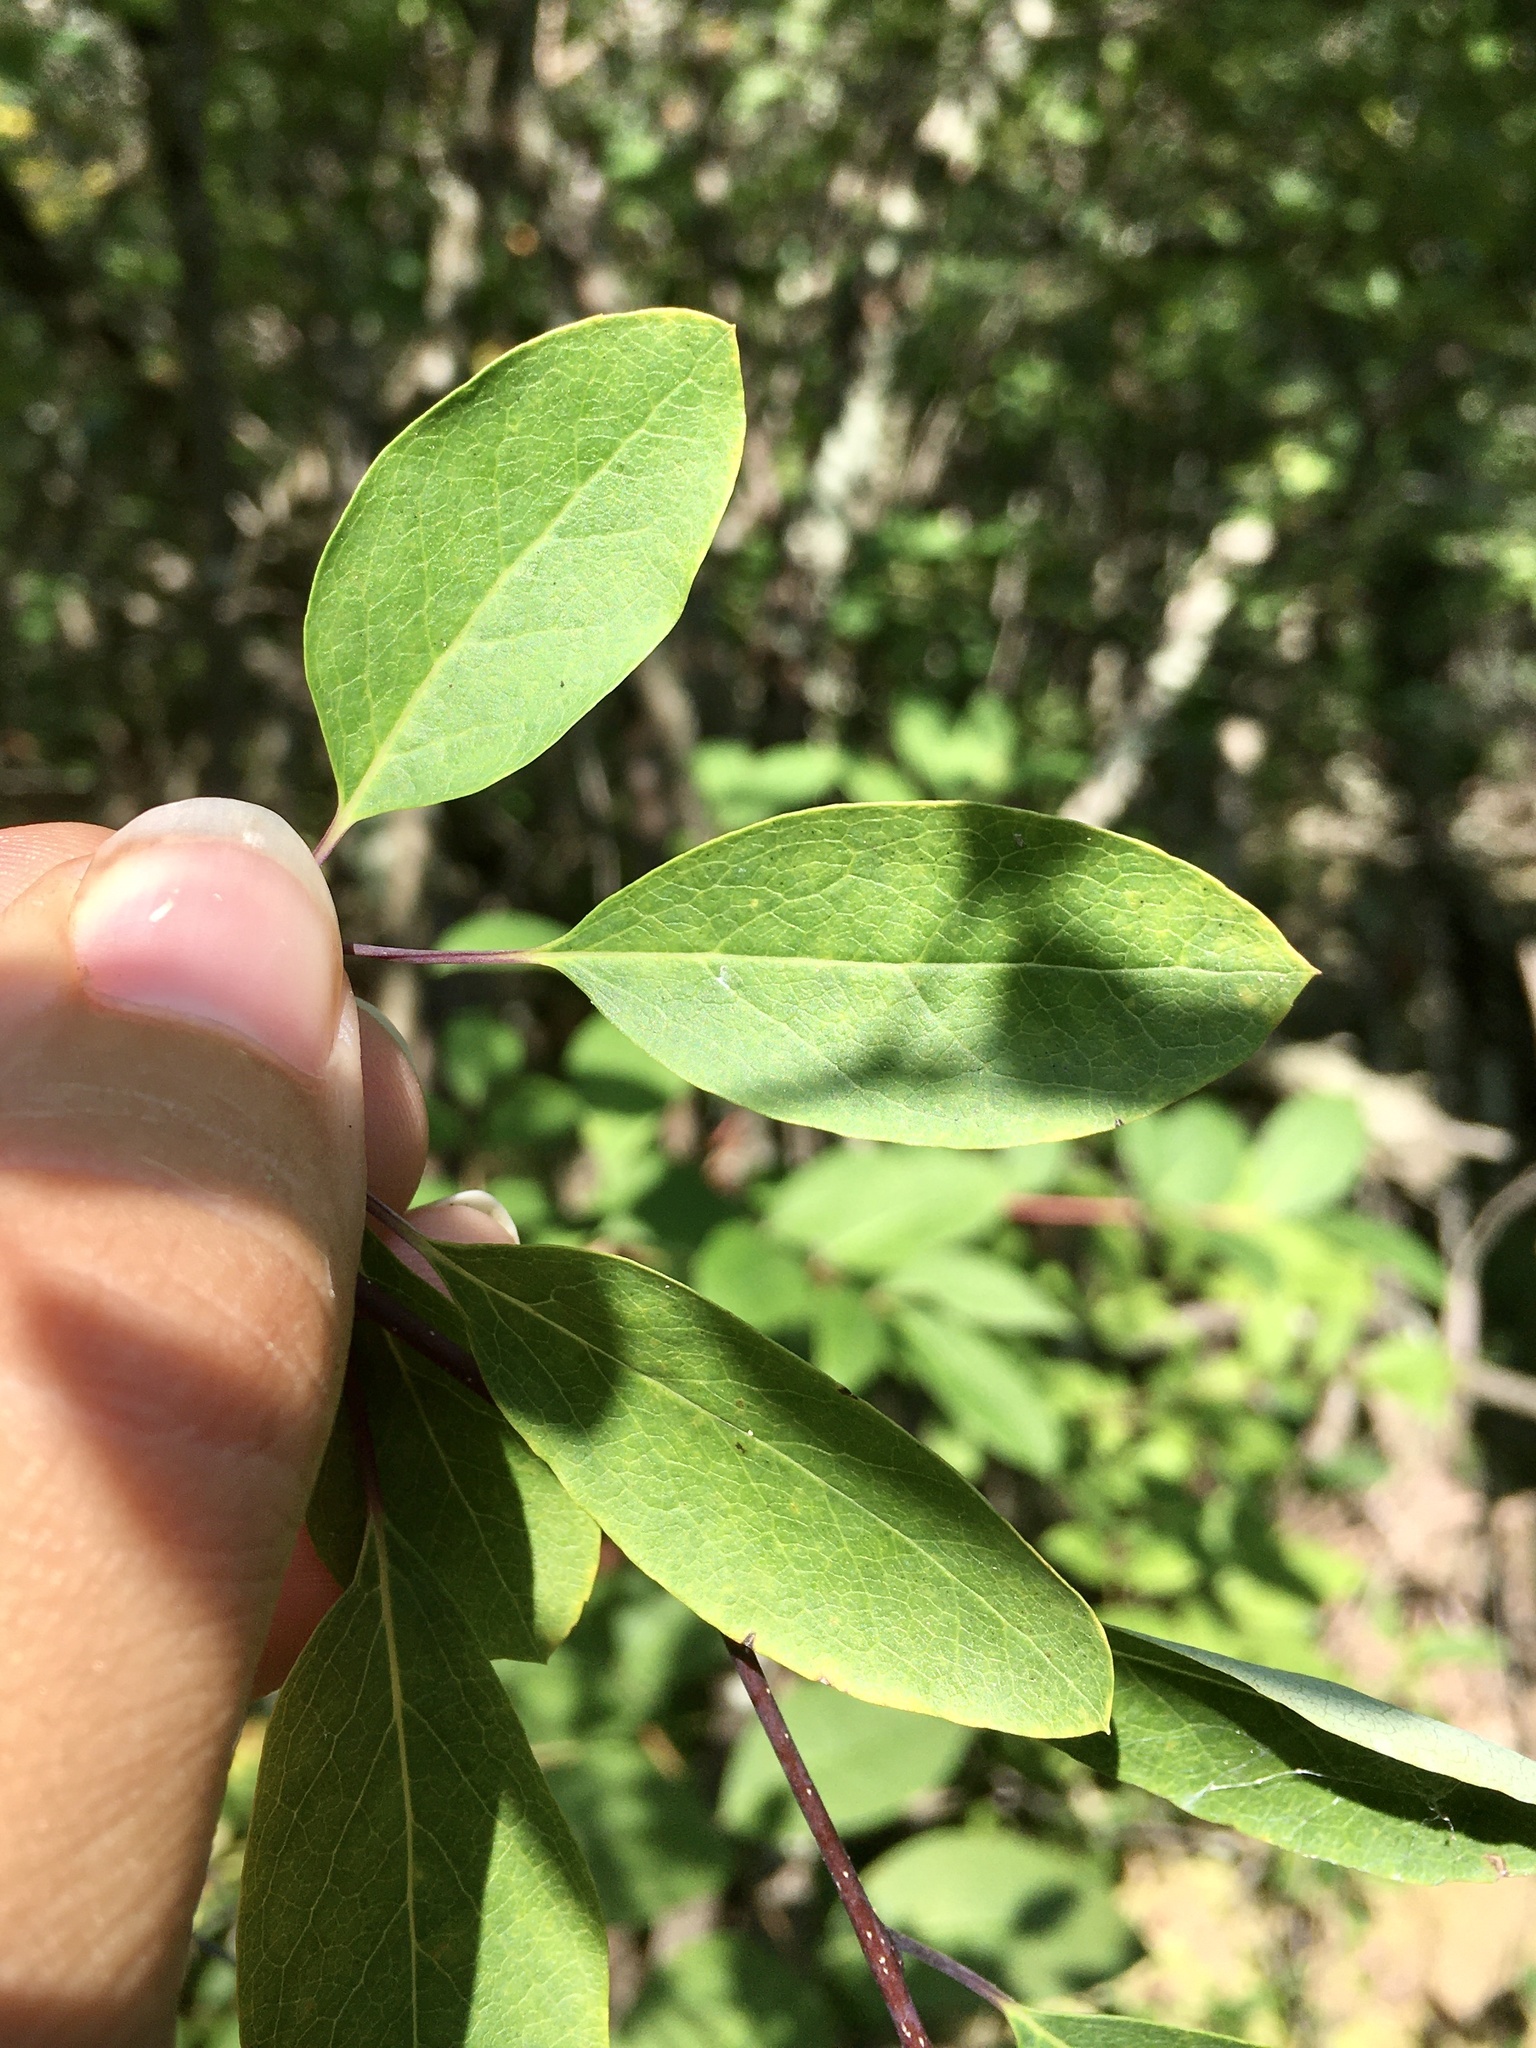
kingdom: Plantae
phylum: Tracheophyta
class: Magnoliopsida
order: Aquifoliales
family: Aquifoliaceae
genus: Ilex
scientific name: Ilex mucronata
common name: Catberry
